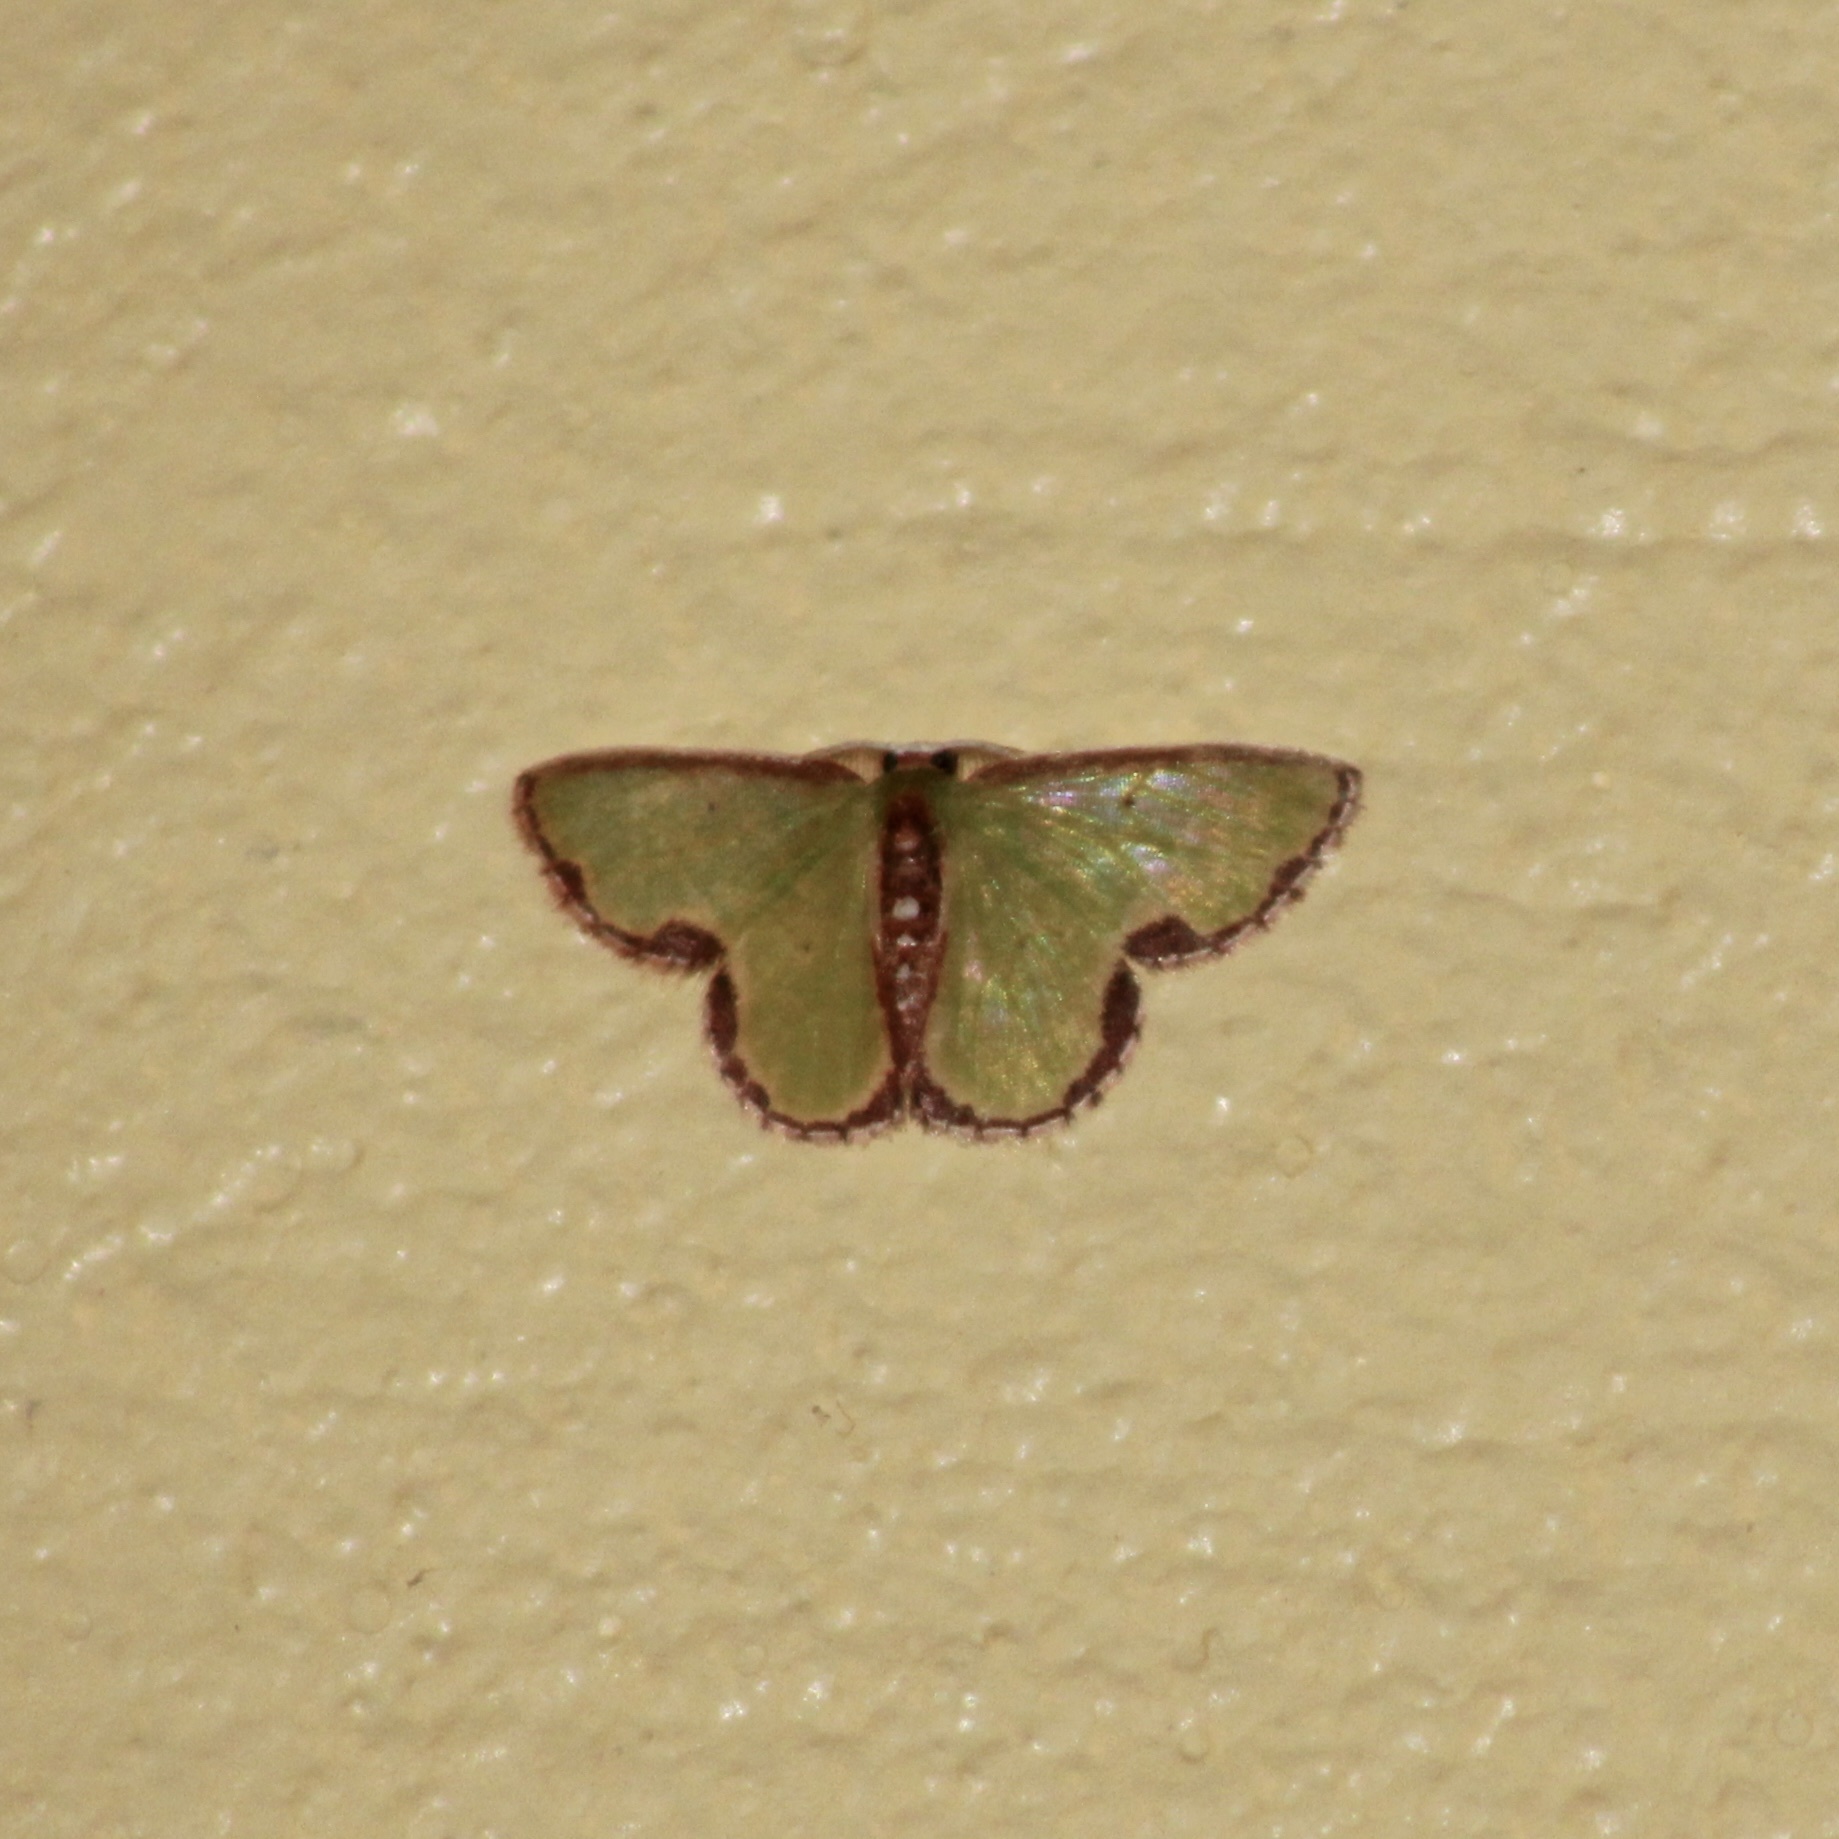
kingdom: Animalia
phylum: Arthropoda
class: Insecta
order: Lepidoptera
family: Geometridae
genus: Synchlora
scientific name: Synchlora expulsata
